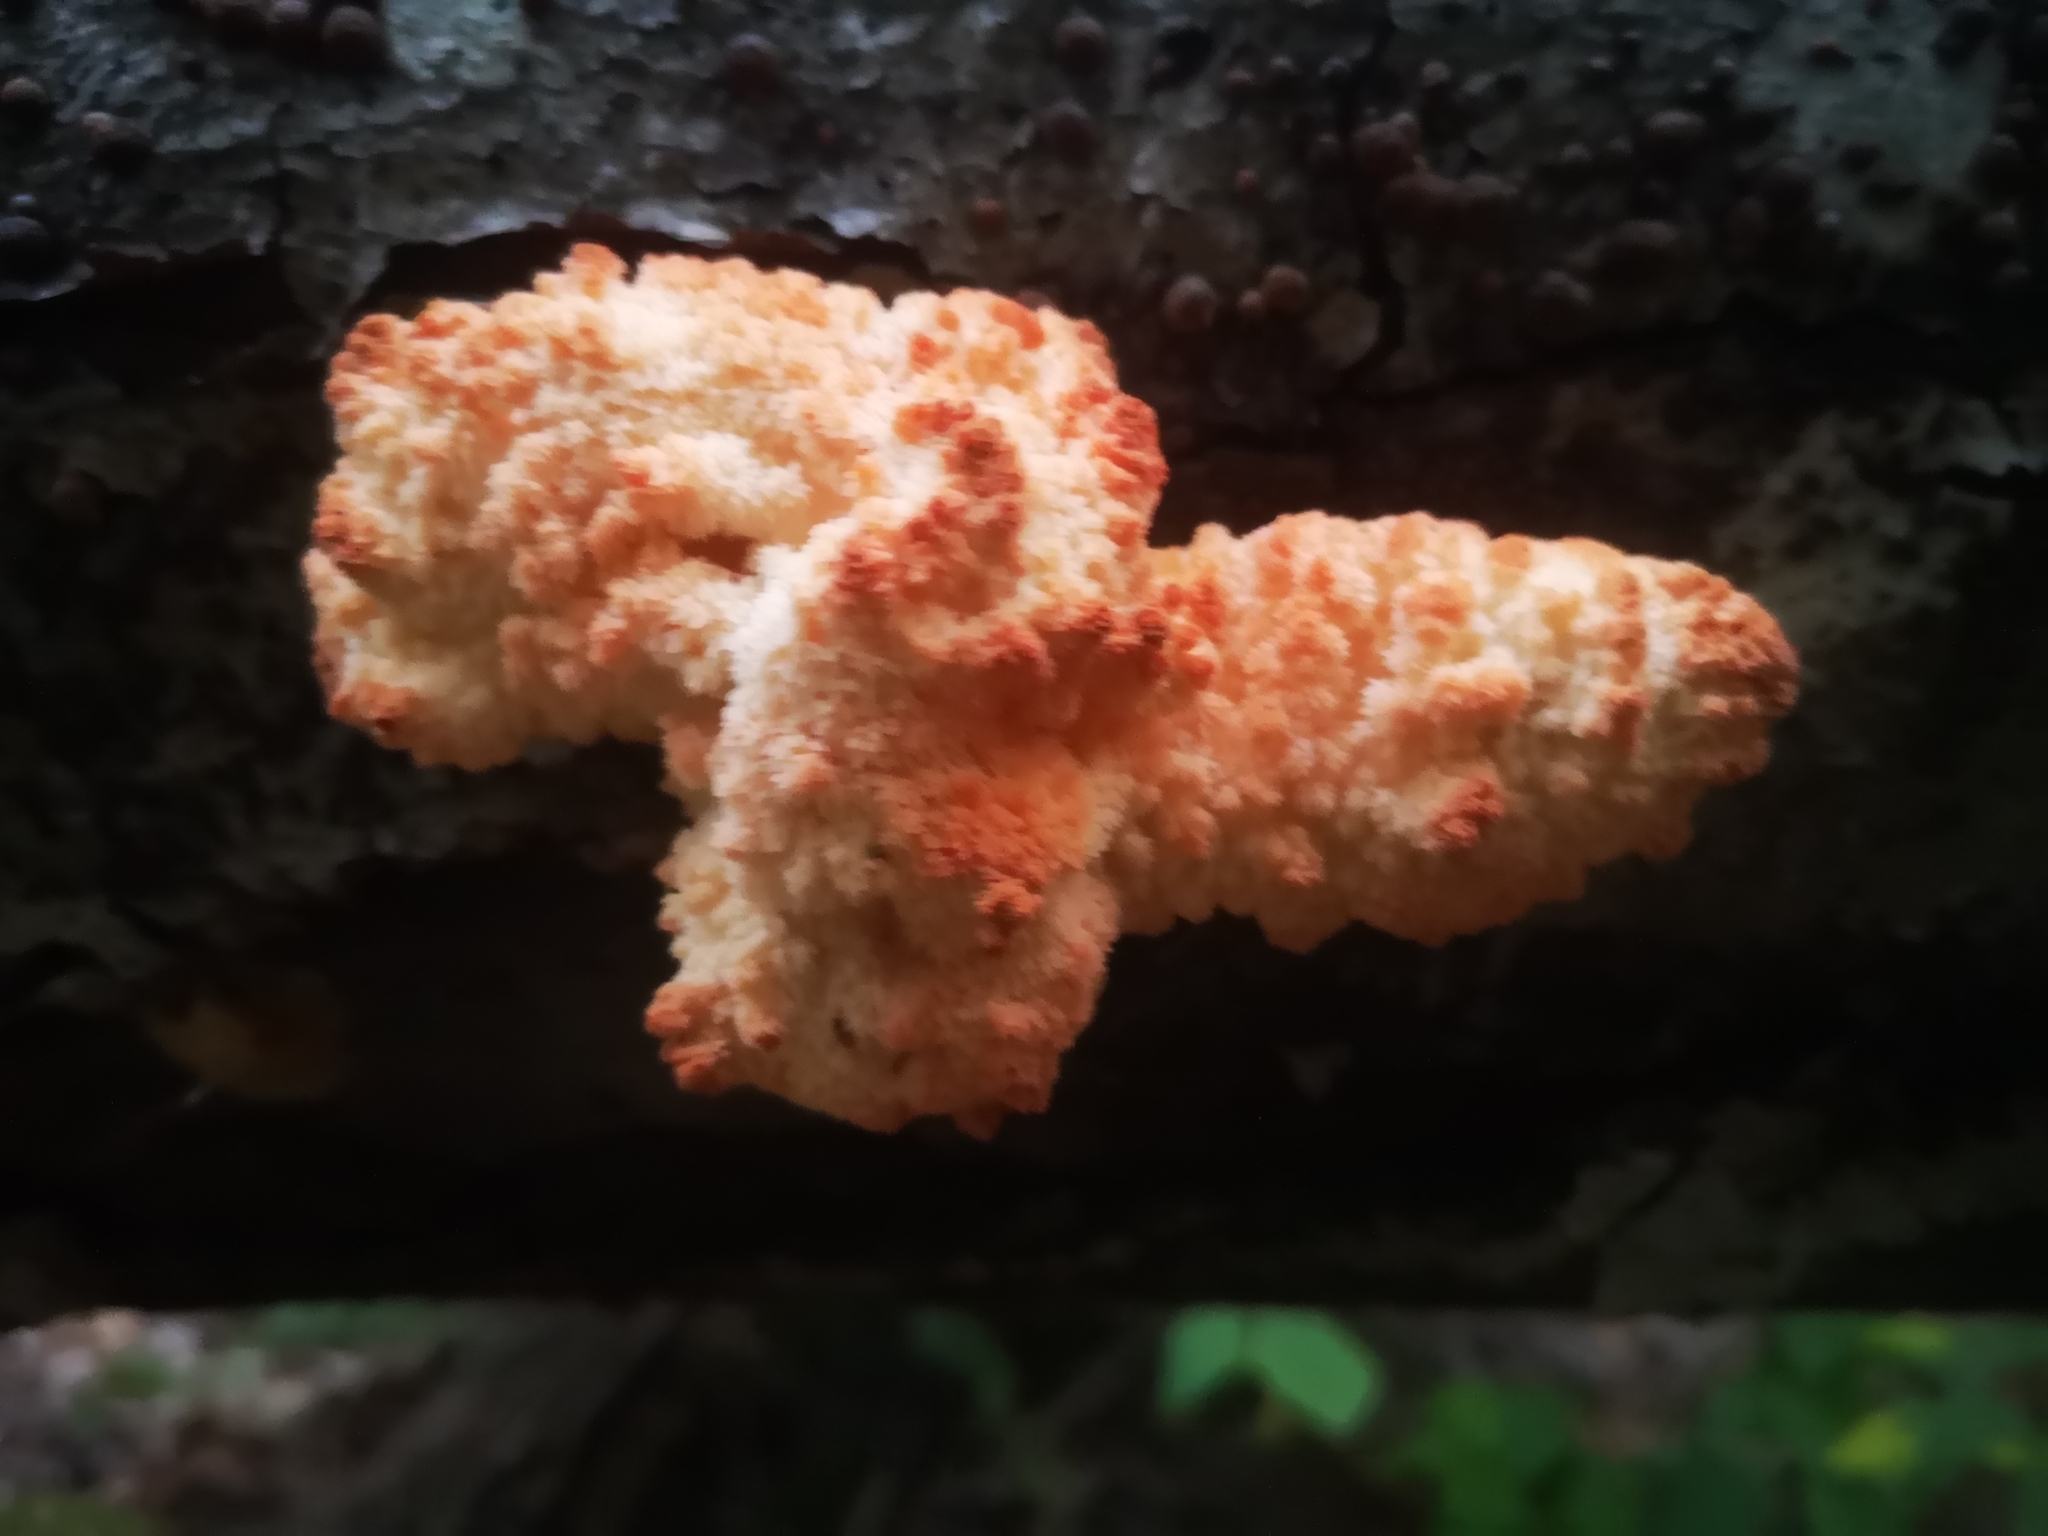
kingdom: Fungi
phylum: Basidiomycota
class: Agaricomycetes
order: Russulales
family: Hericiaceae
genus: Hericium
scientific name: Hericium americanum
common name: Bear's head tooth
